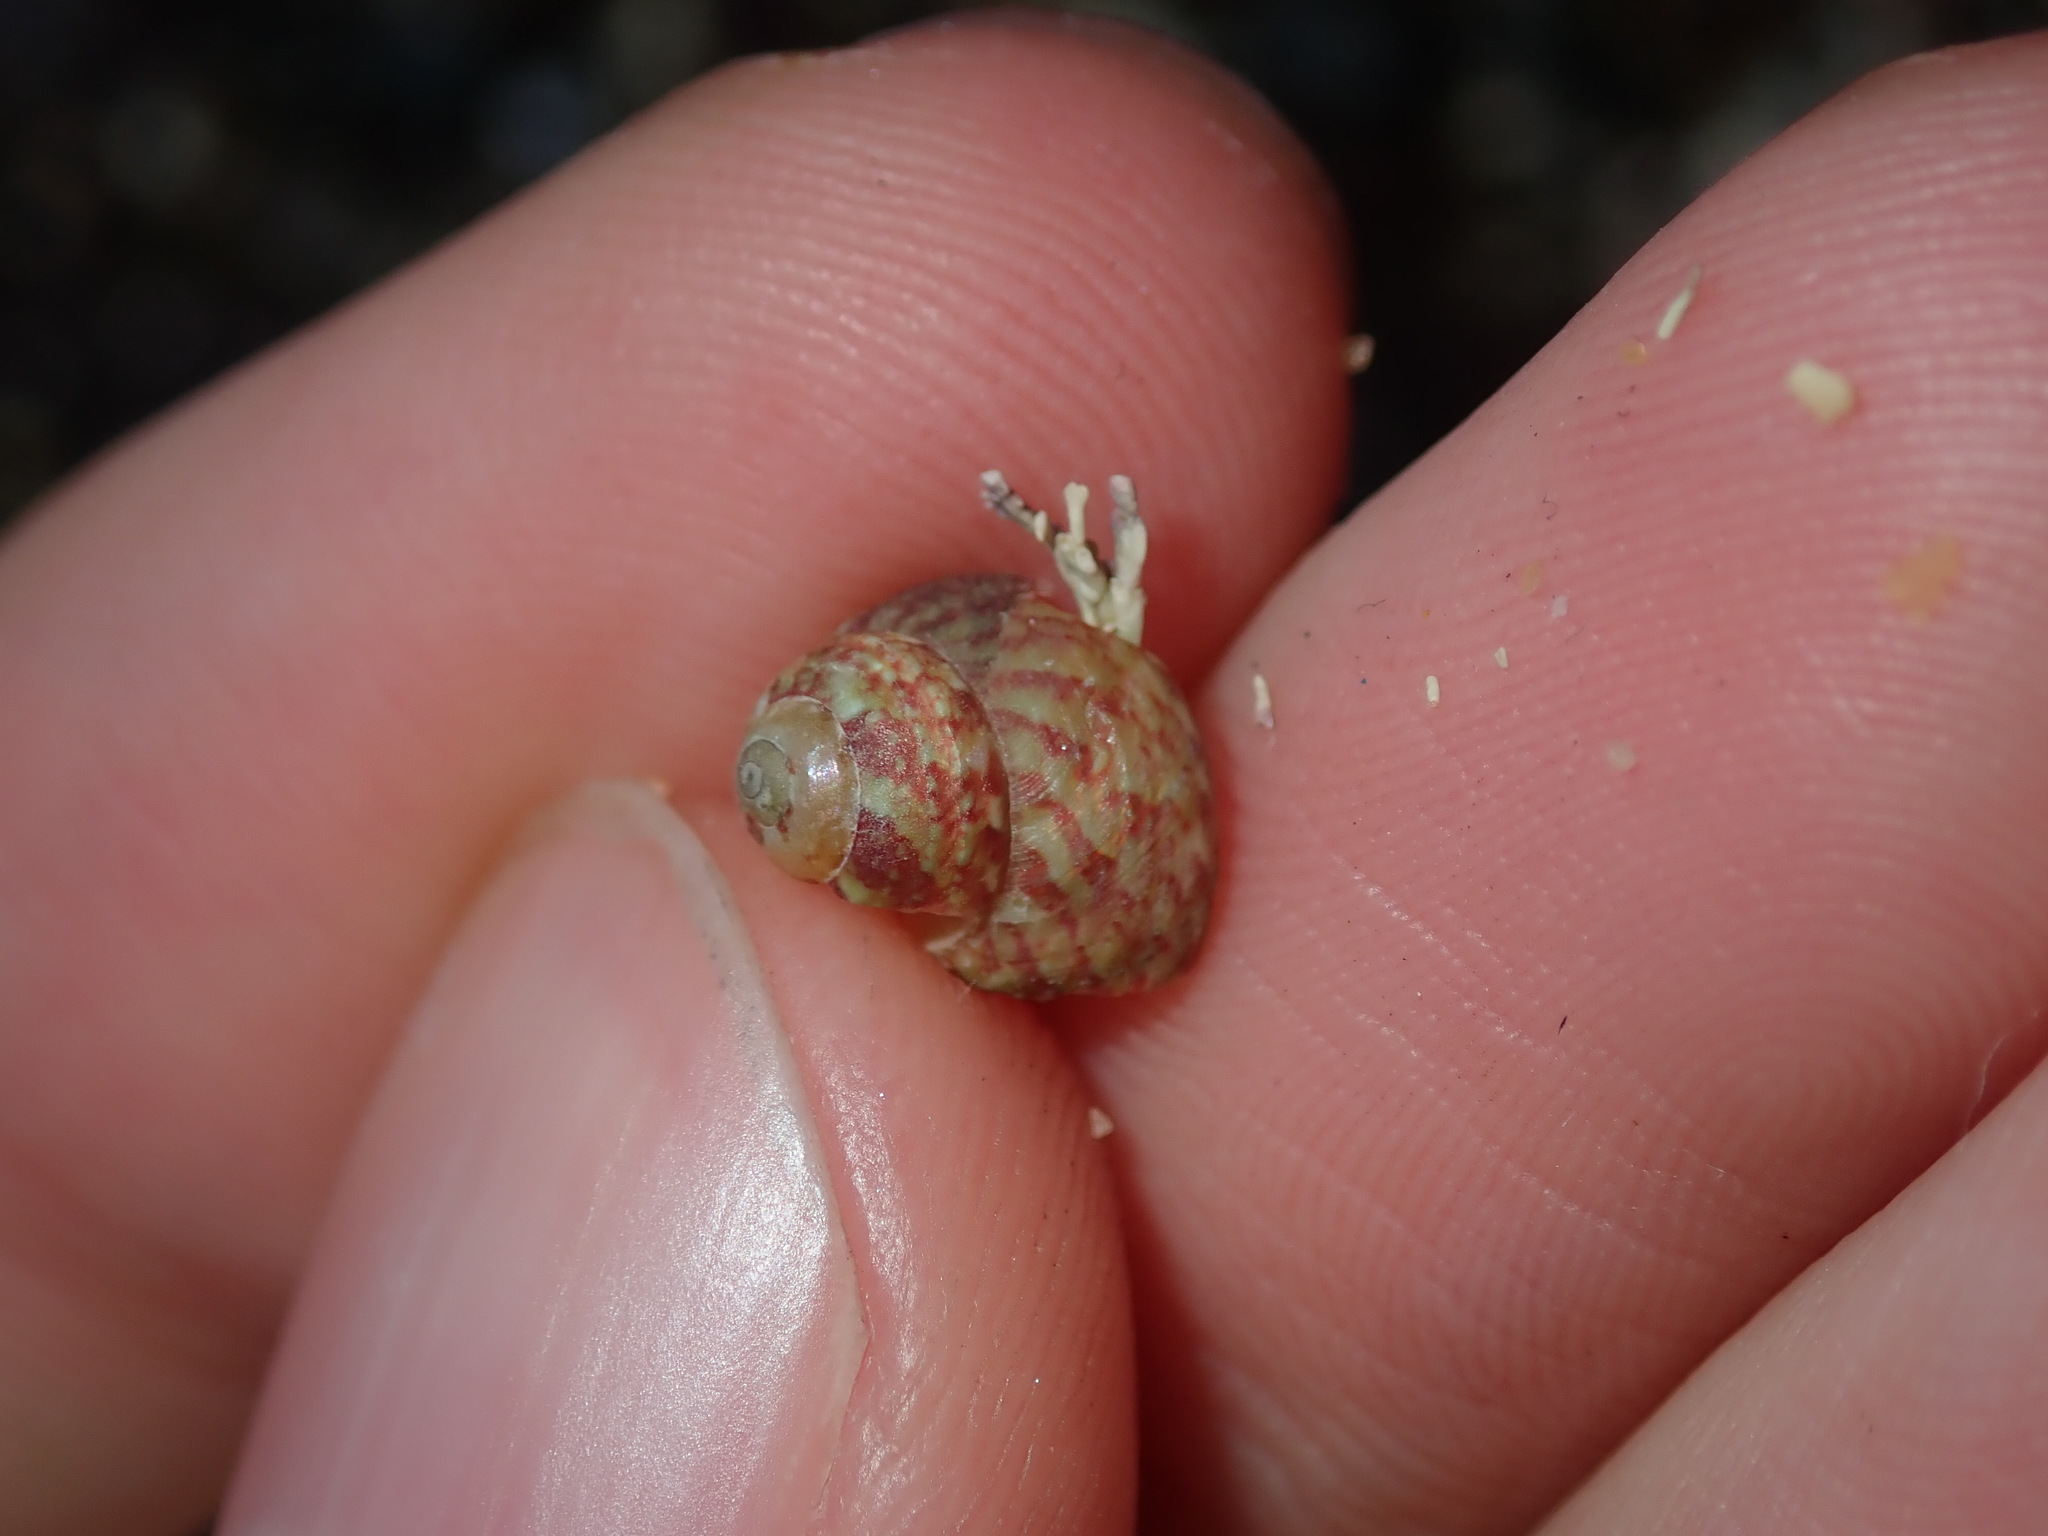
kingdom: Animalia
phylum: Mollusca
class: Gastropoda
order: Trochida
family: Trochidae
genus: Cantharidella
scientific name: Cantharidella picturata
